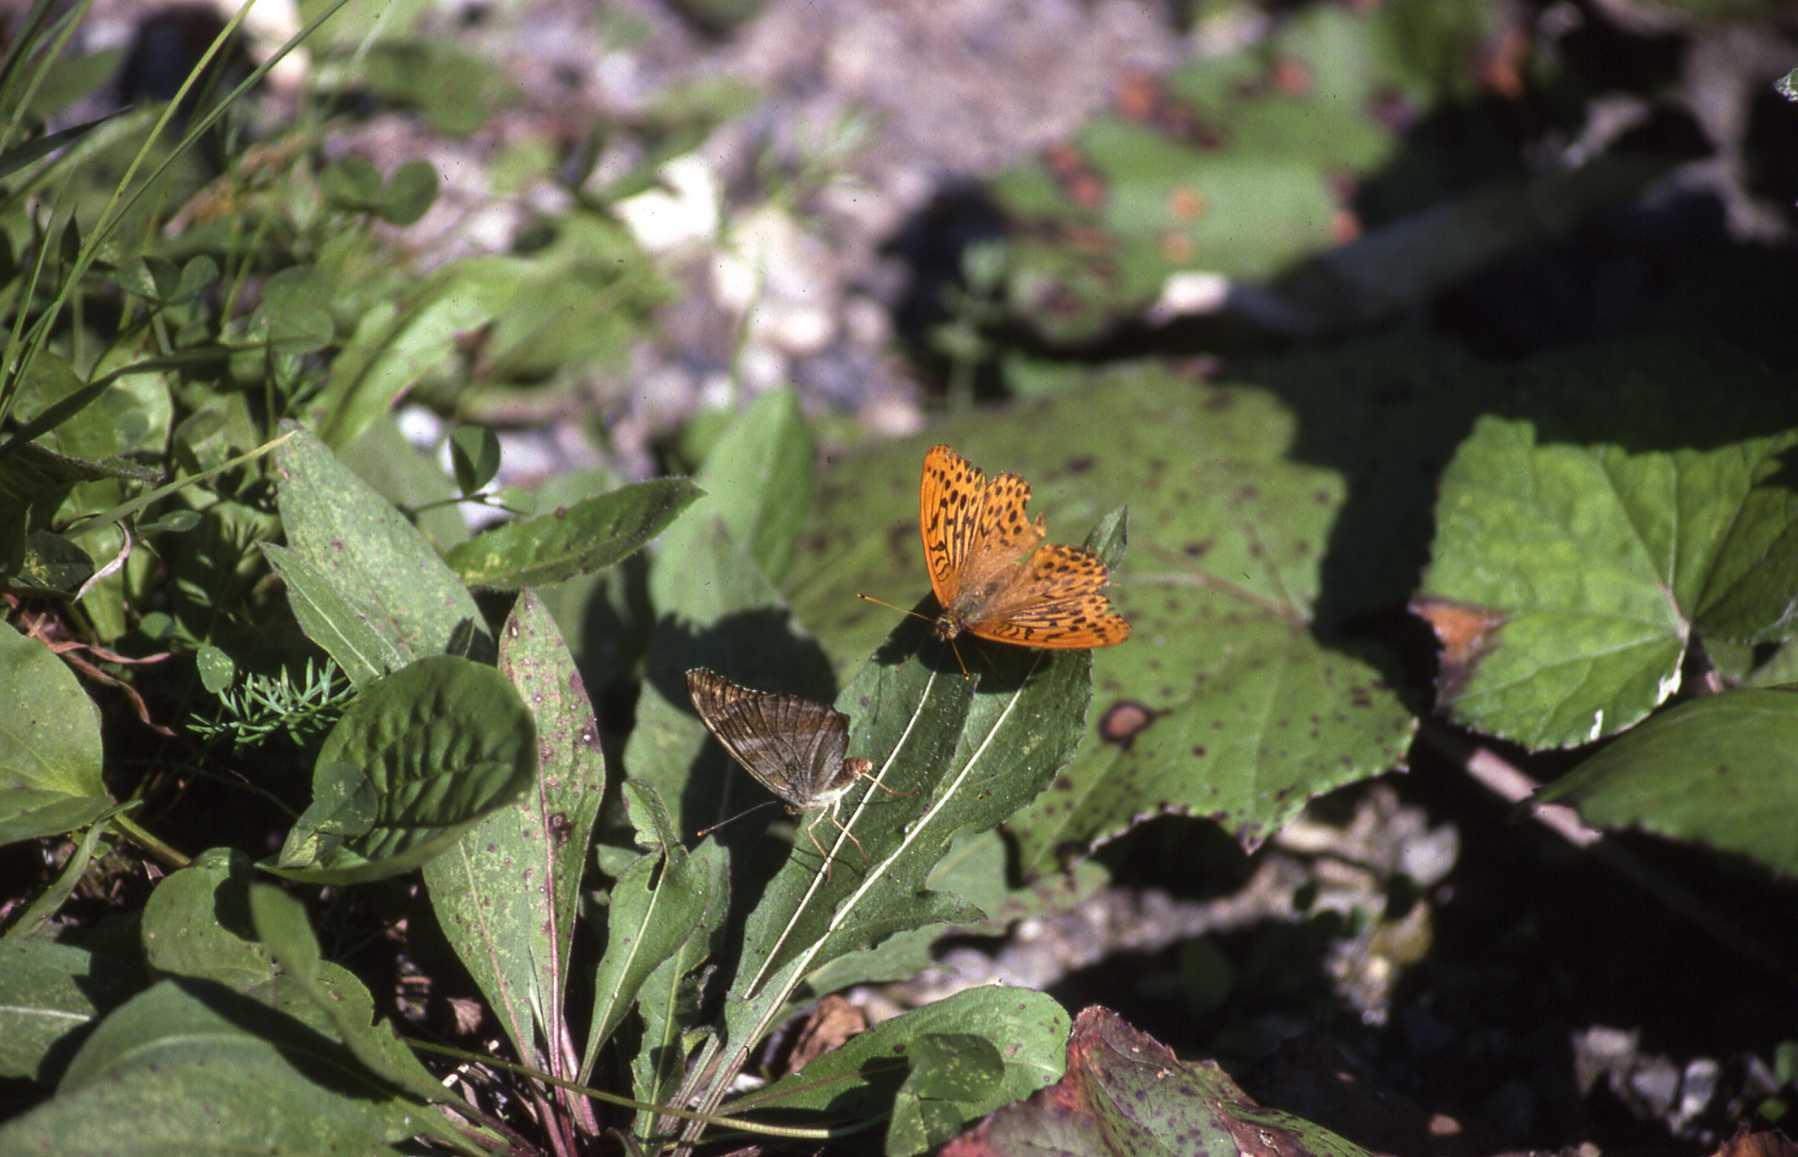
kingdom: Animalia
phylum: Arthropoda
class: Insecta
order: Lepidoptera
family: Nymphalidae
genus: Argynnis
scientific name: Argynnis paphia
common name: Silver-washed fritillary
